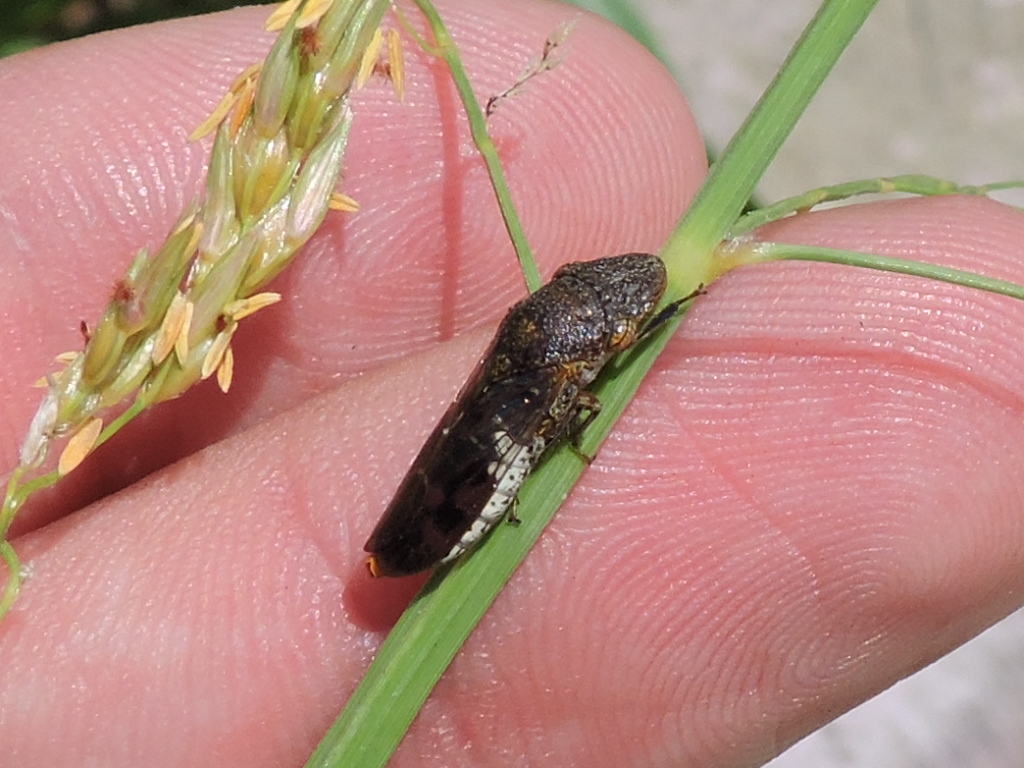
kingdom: Animalia
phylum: Arthropoda
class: Insecta
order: Hemiptera
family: Cicadellidae
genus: Homalodisca
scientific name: Homalodisca vitripennis
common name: Glassy-winged sharpshooter
